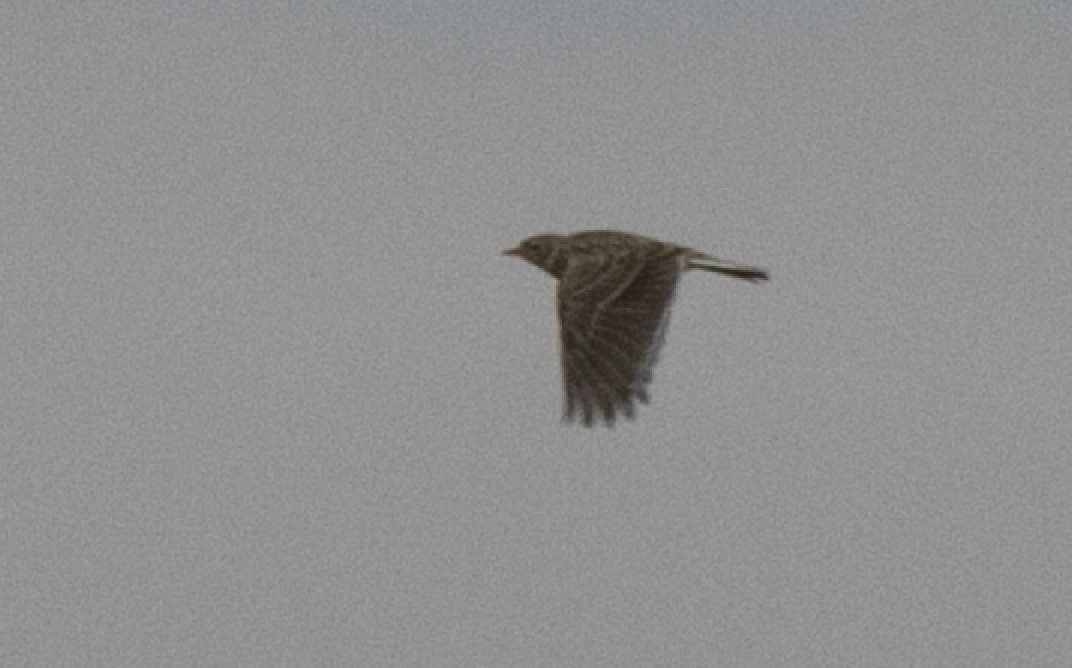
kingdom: Animalia
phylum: Chordata
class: Aves
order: Passeriformes
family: Alaudidae
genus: Alauda
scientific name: Alauda arvensis
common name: Eurasian skylark
